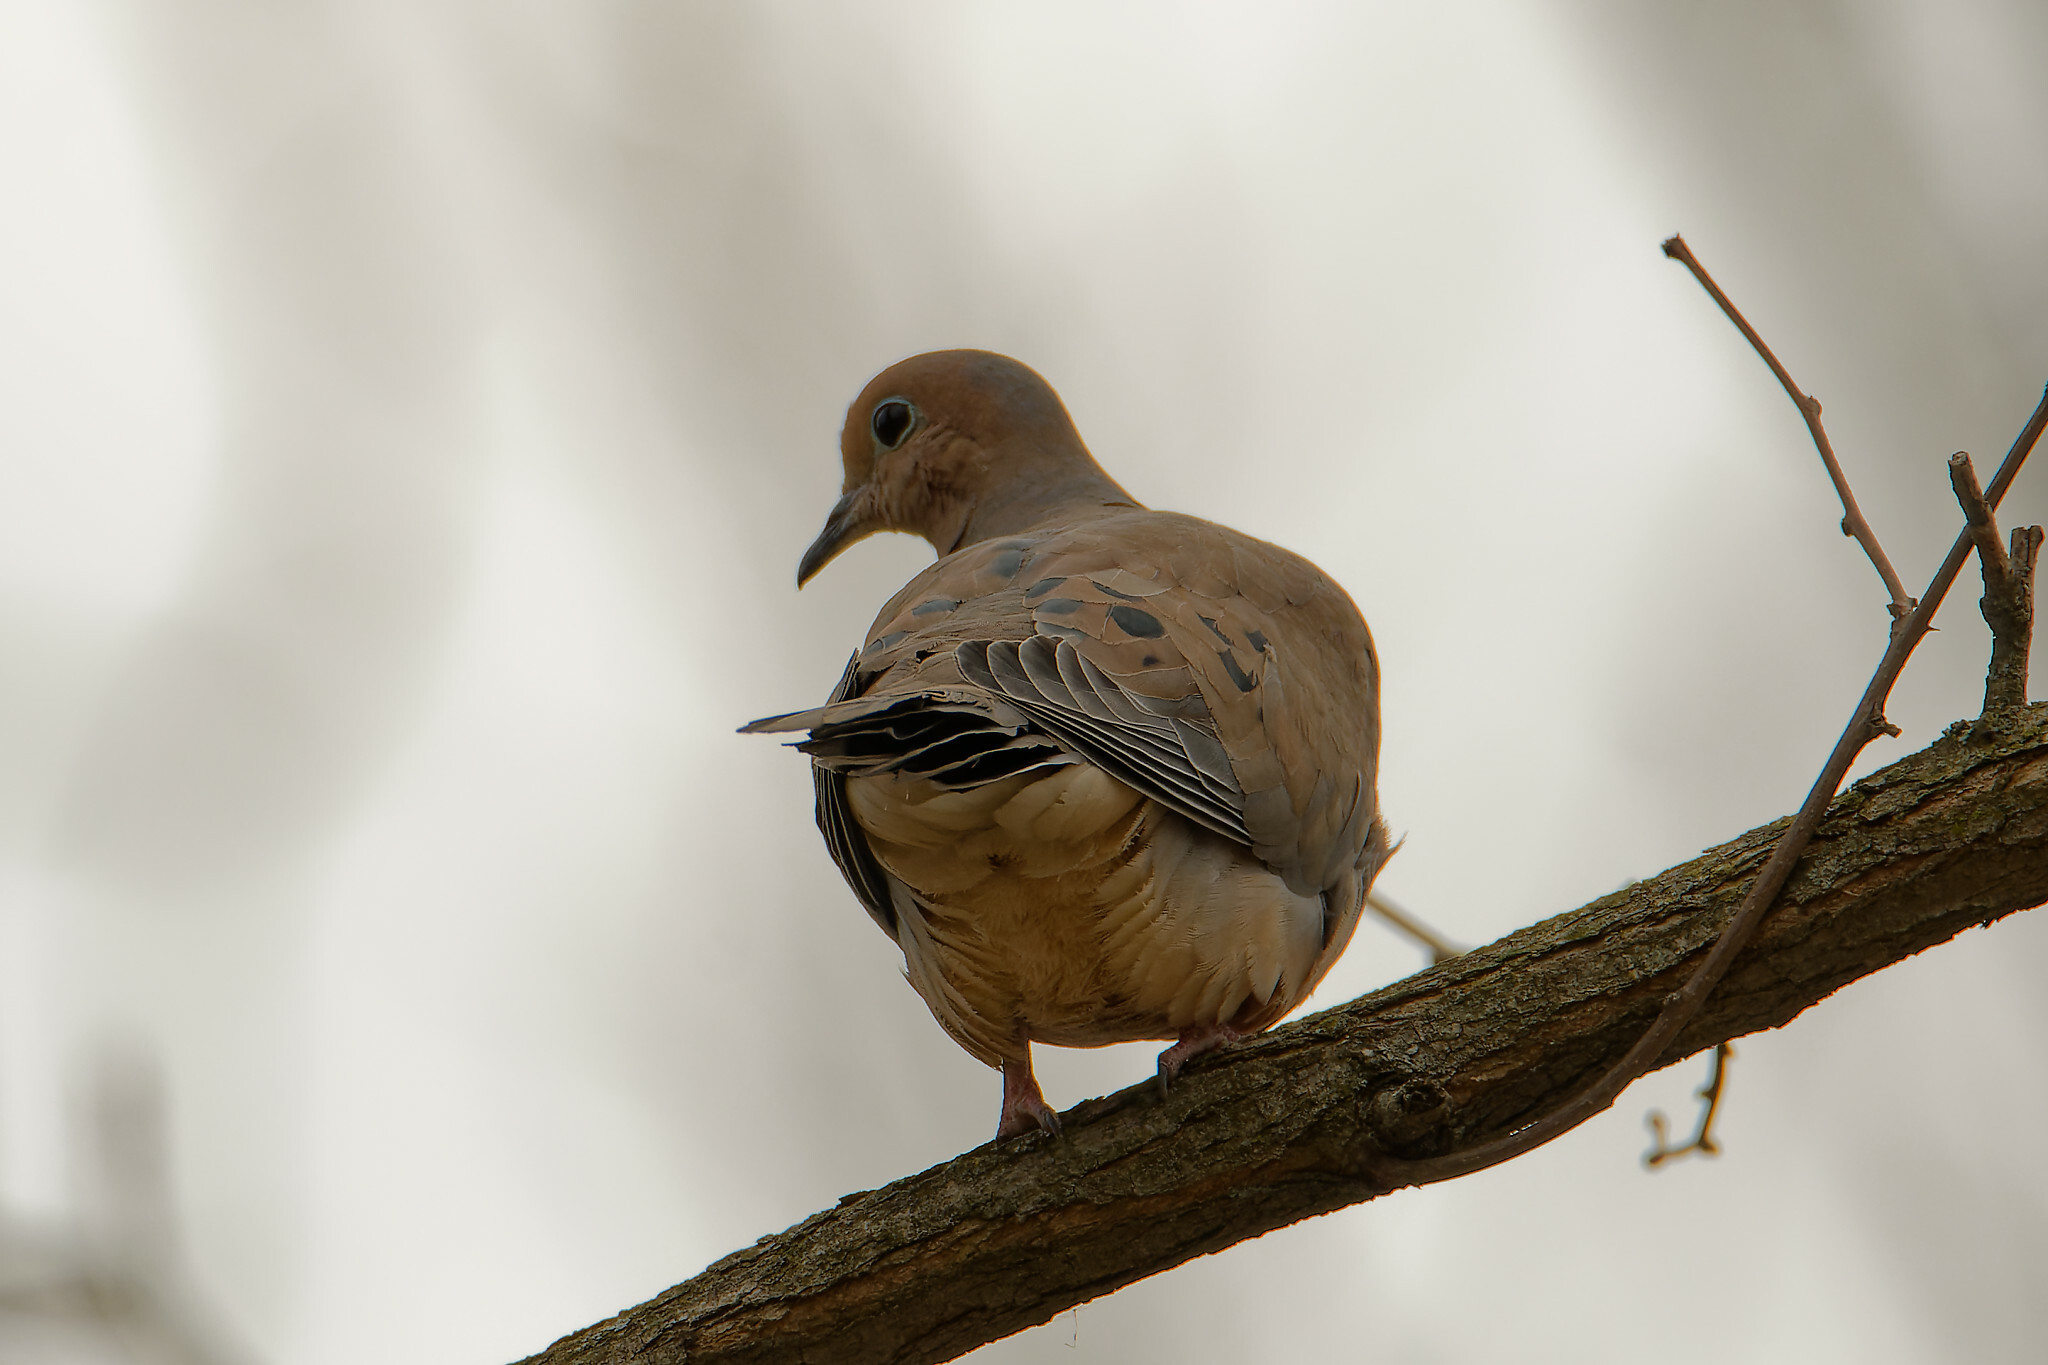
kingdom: Animalia
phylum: Chordata
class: Aves
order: Columbiformes
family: Columbidae
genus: Zenaida
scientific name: Zenaida macroura
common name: Mourning dove
